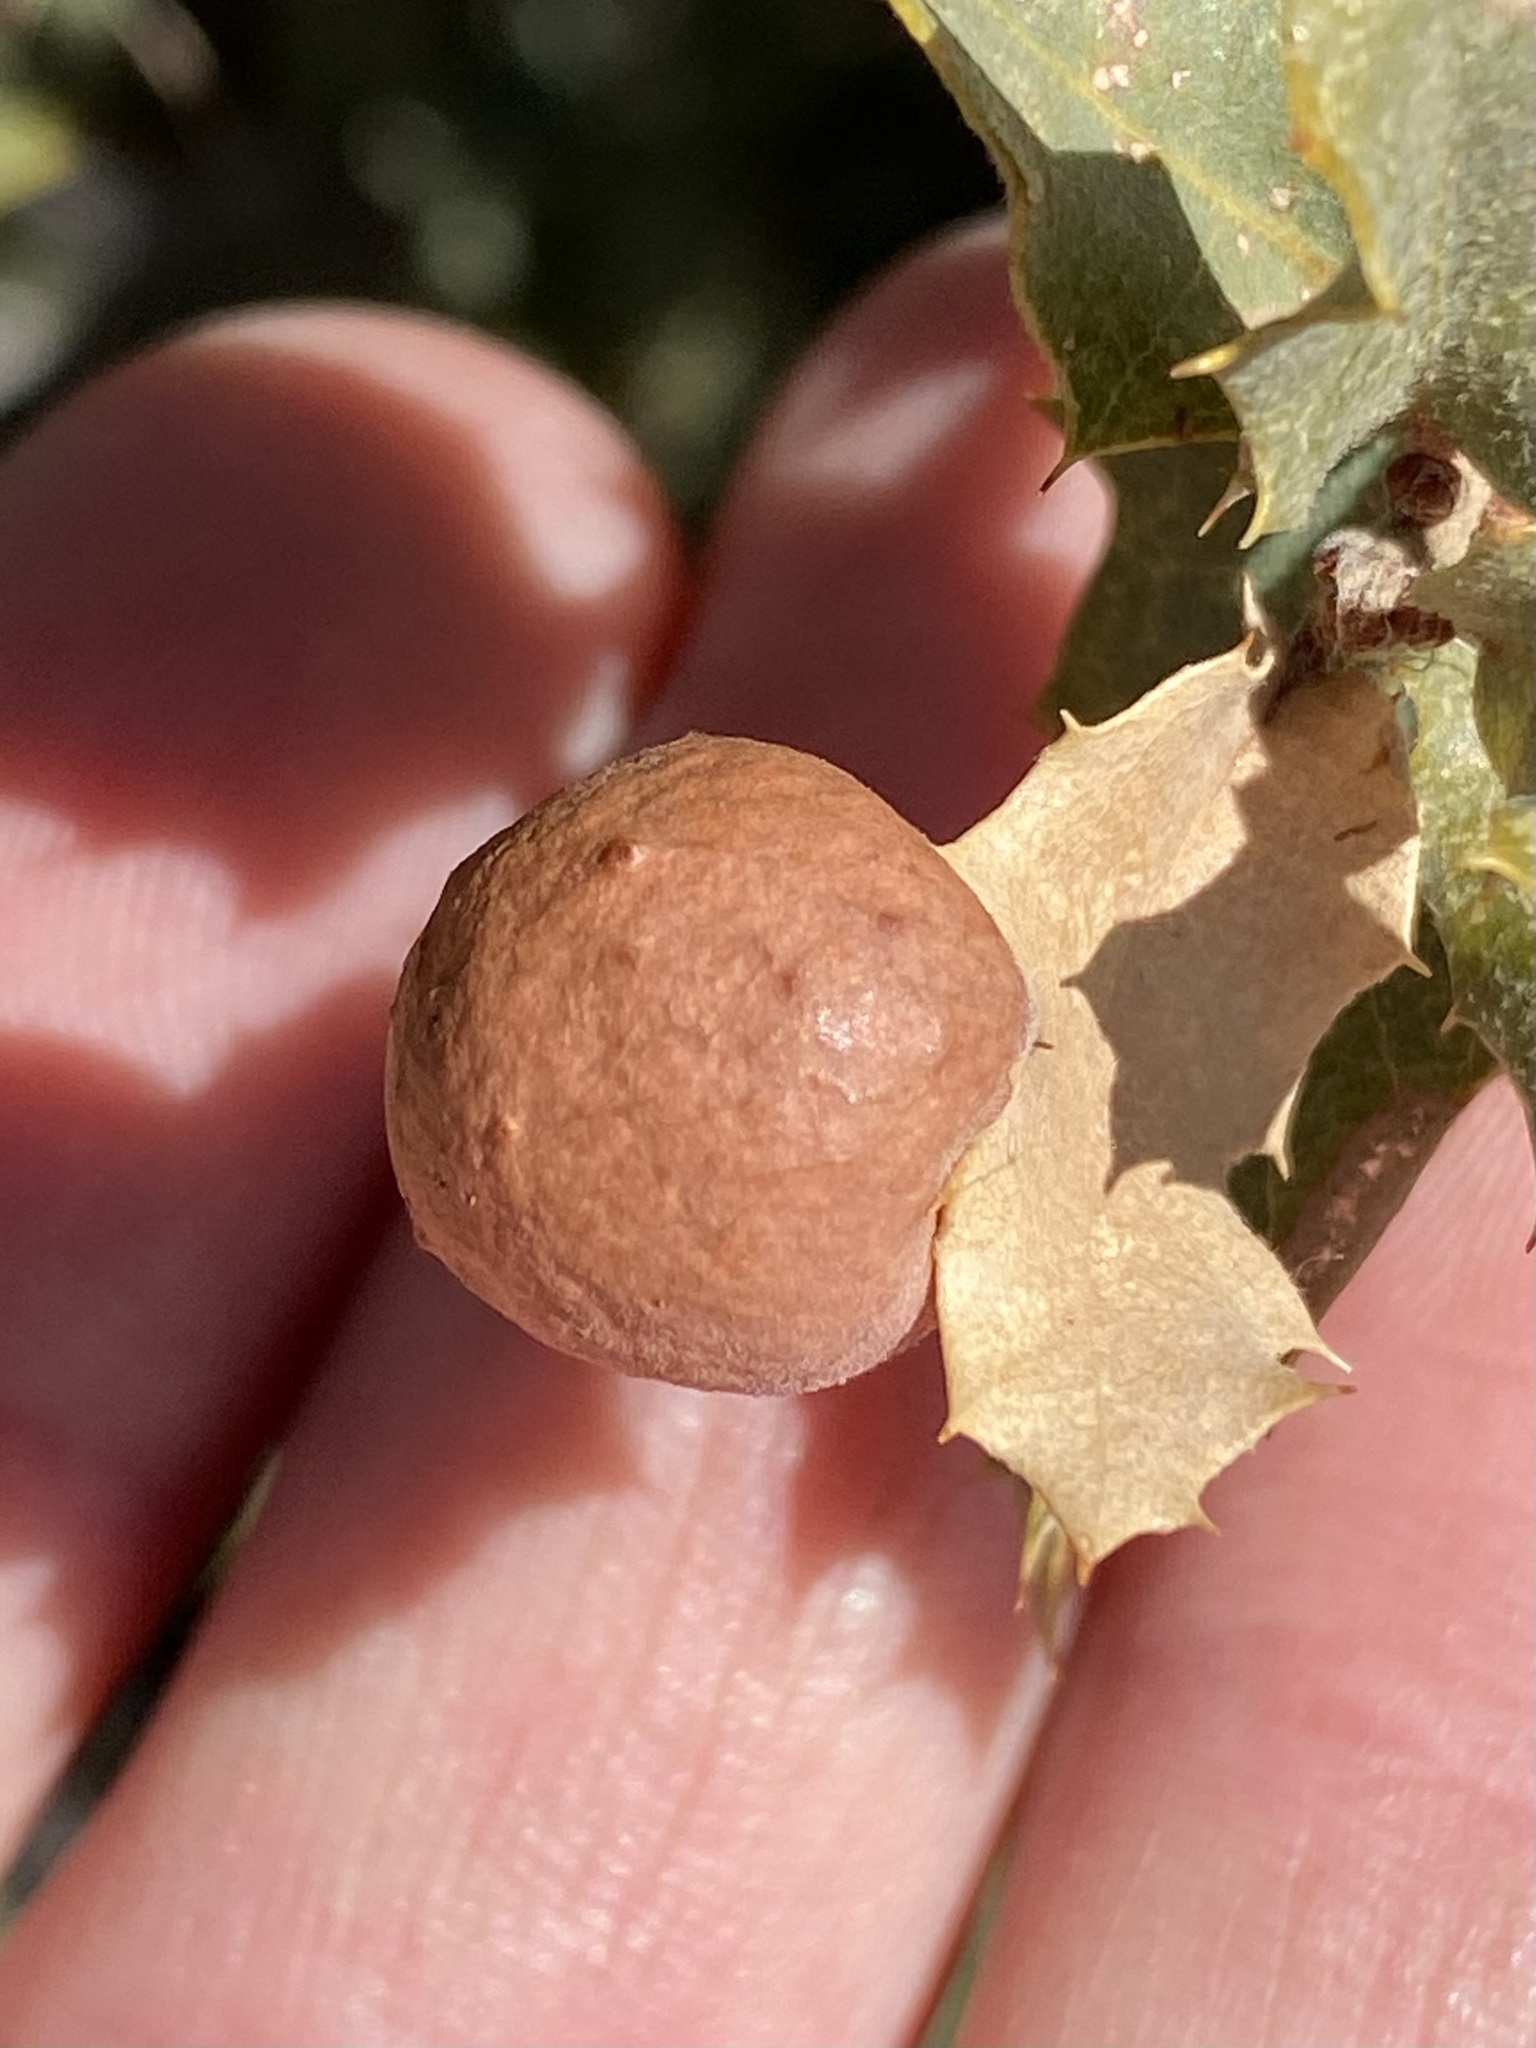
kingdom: Animalia
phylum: Arthropoda
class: Insecta
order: Hymenoptera
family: Cynipidae
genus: Atrusca
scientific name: Atrusca
